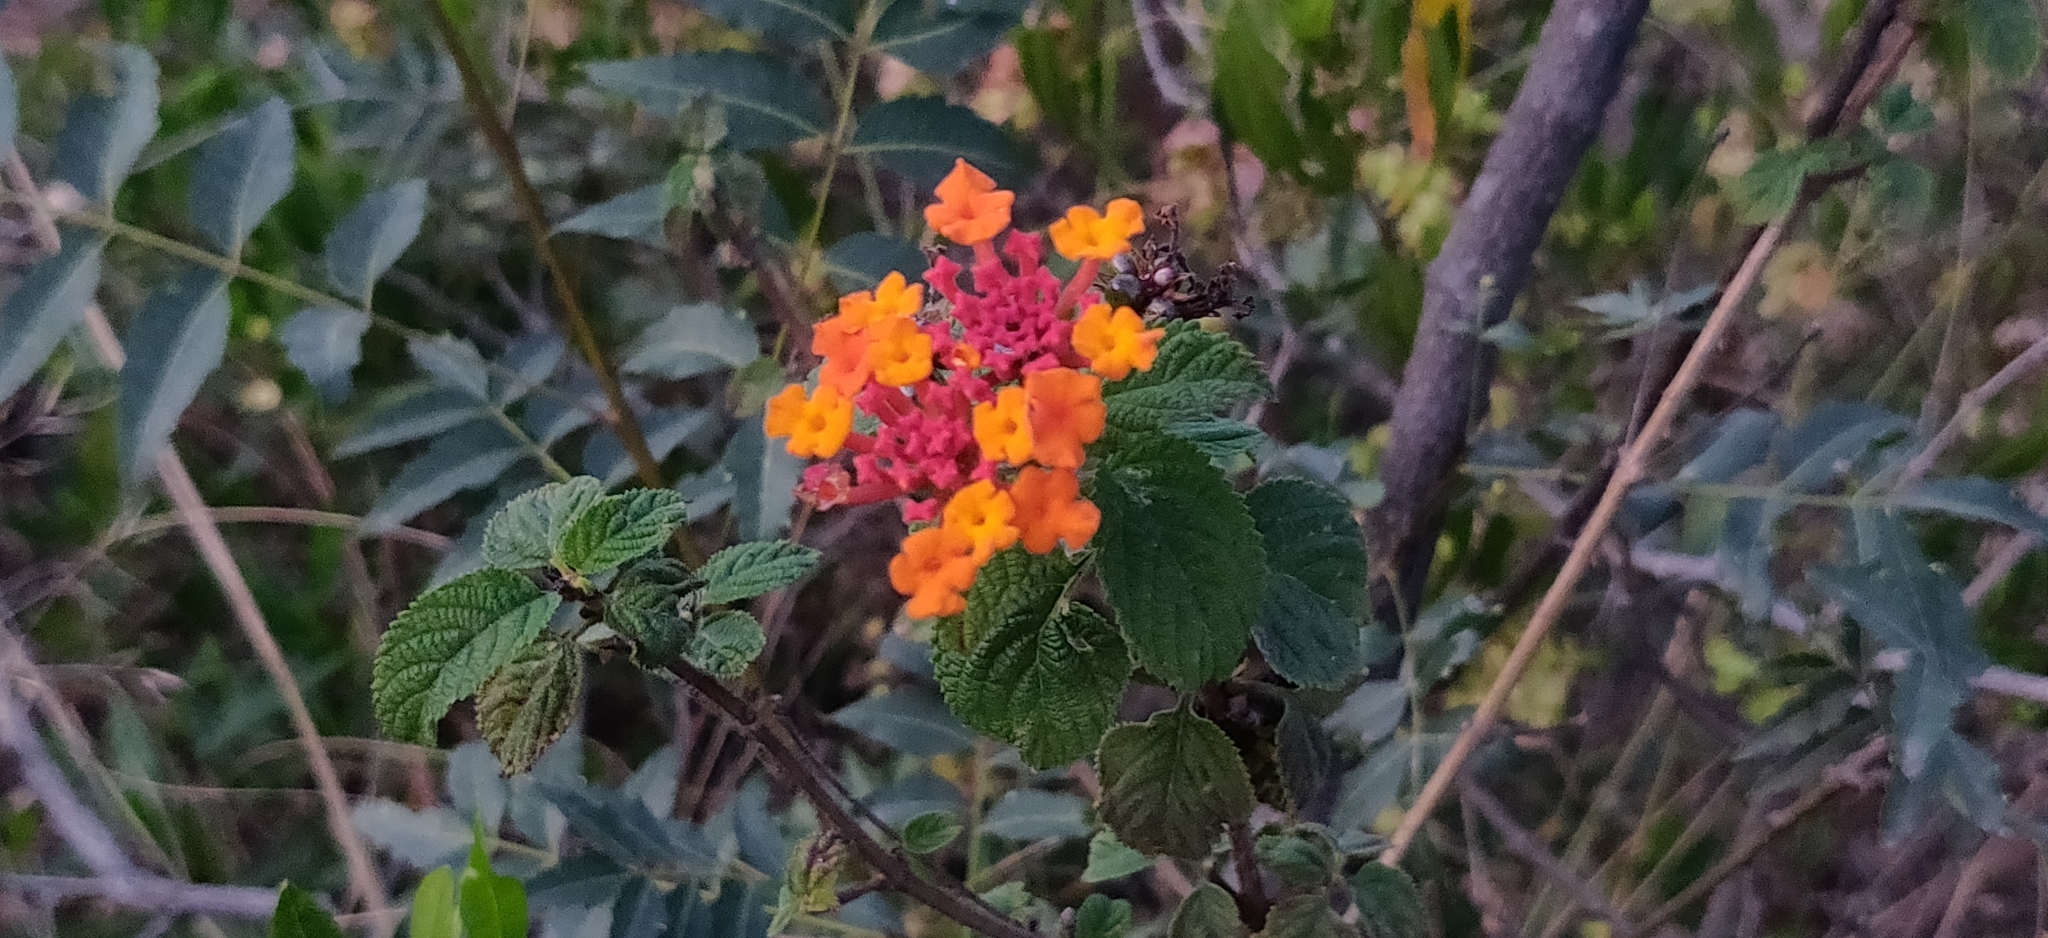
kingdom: Plantae
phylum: Tracheophyta
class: Magnoliopsida
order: Lamiales
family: Verbenaceae
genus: Lantana
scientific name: Lantana camara
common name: Lantana
